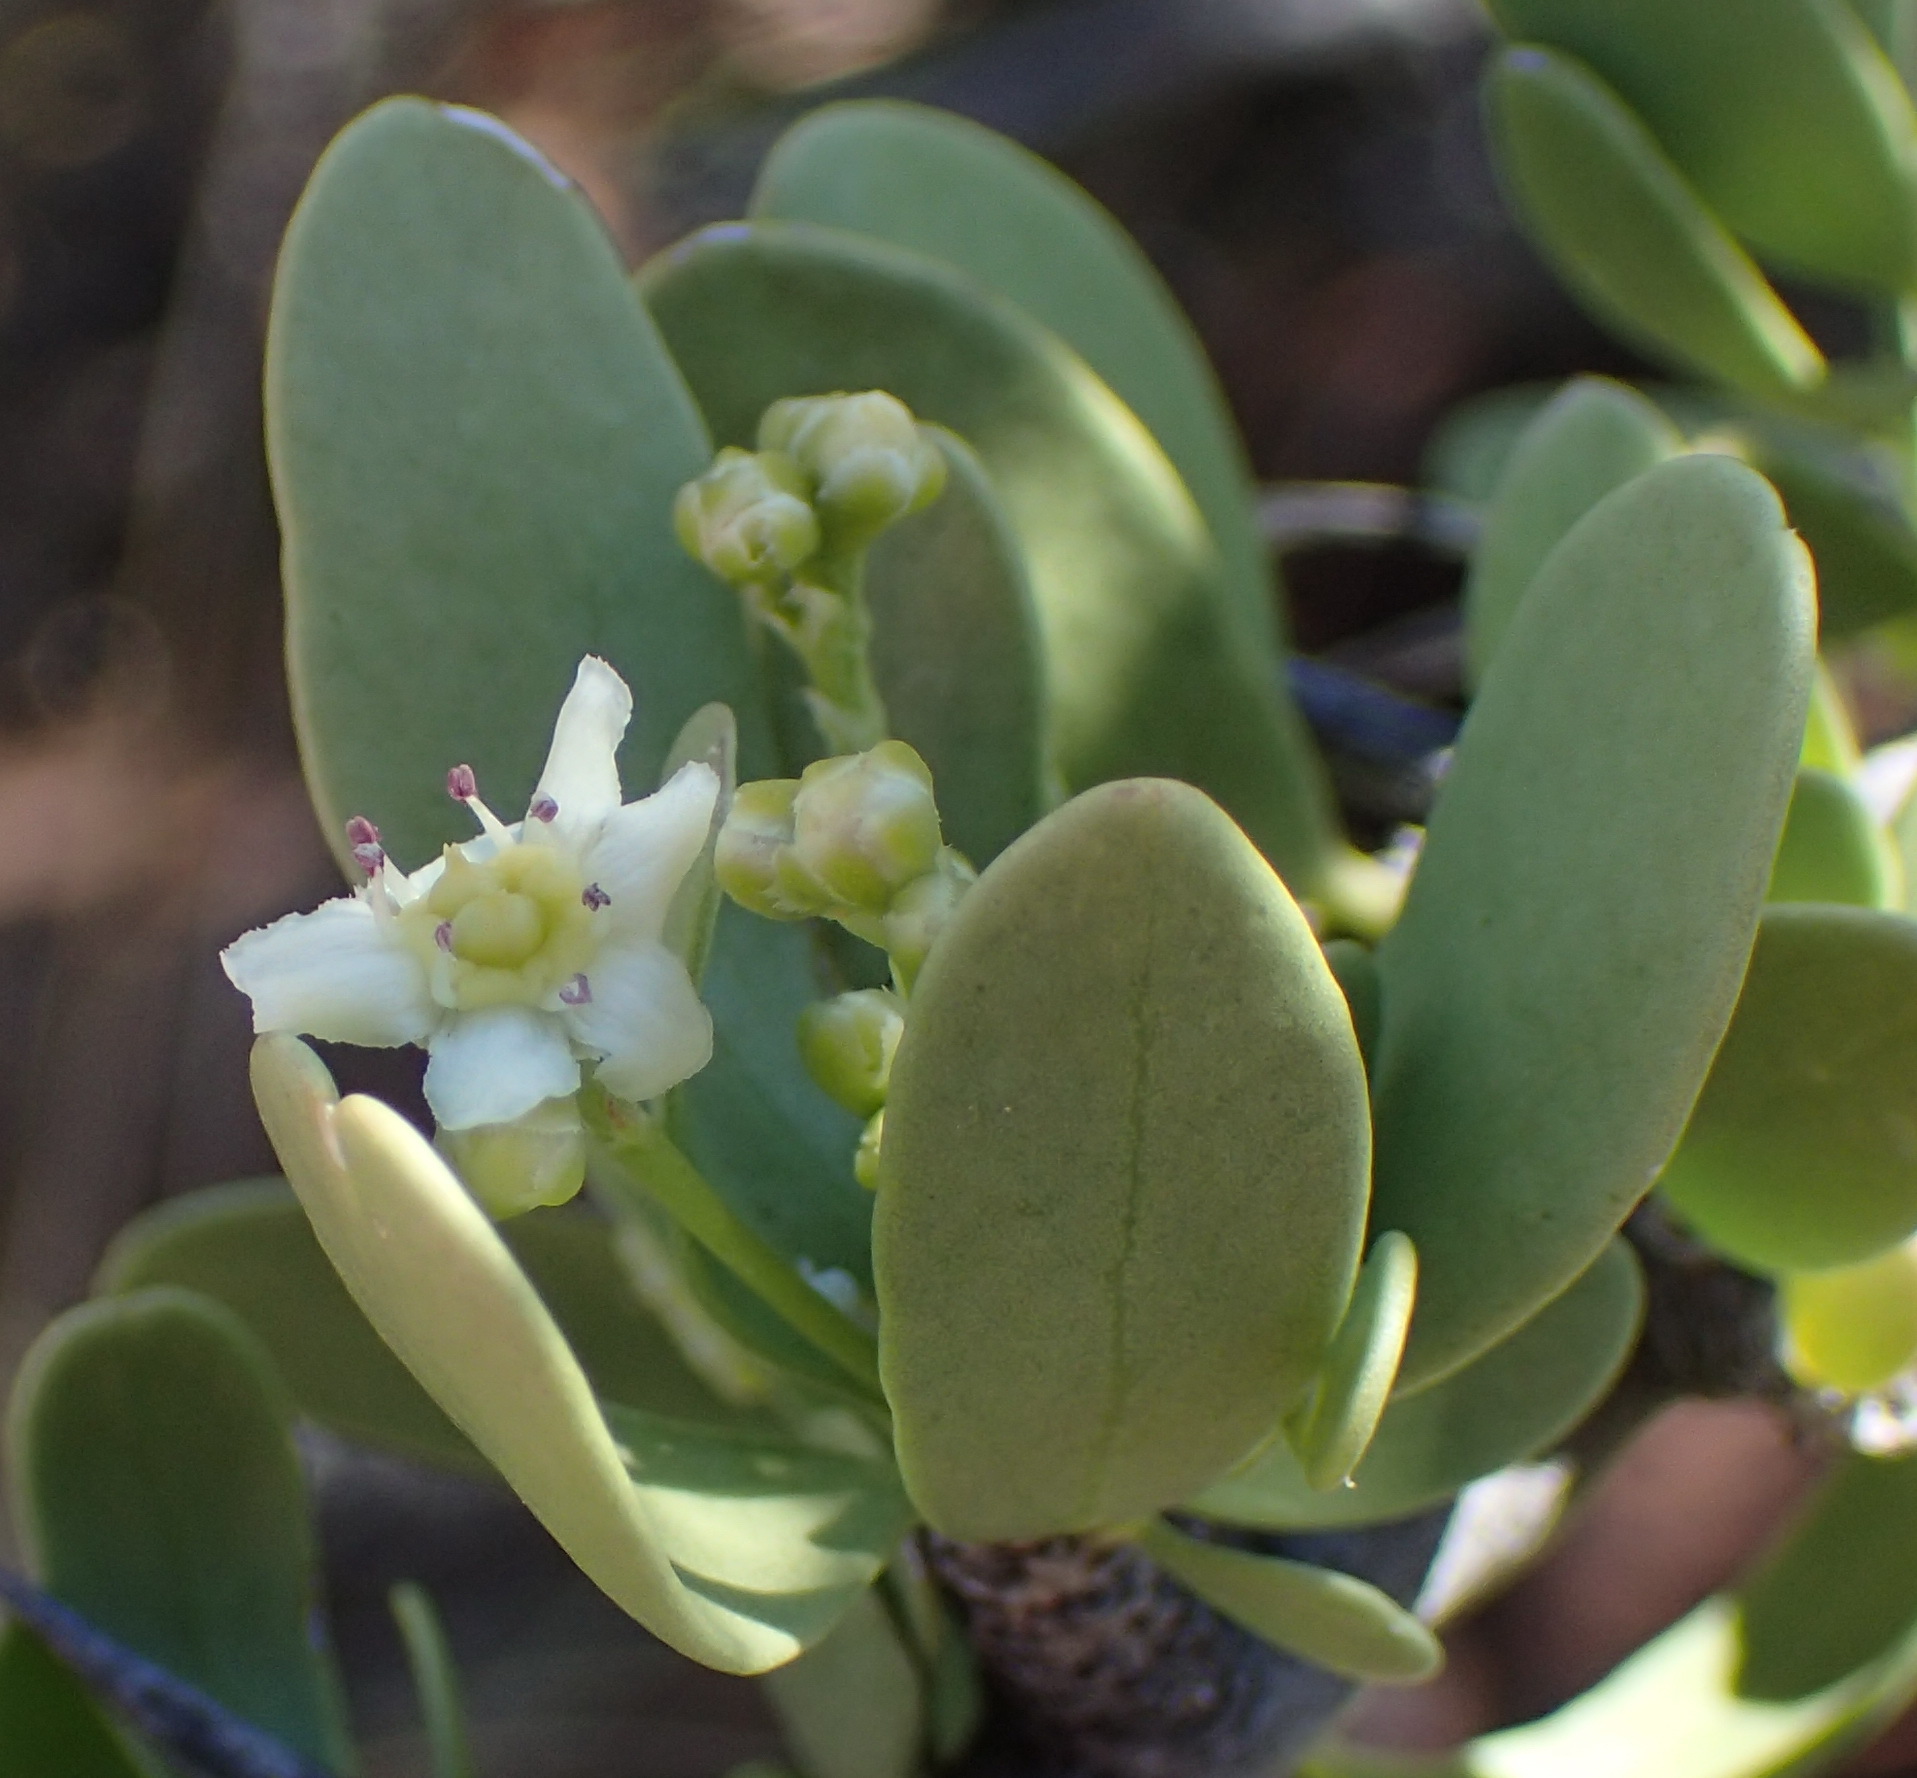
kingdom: Plantae
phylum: Tracheophyta
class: Magnoliopsida
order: Celastrales
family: Celastraceae
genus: Gymnosporia
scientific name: Gymnosporia buxifolia
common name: Common spike-thorn
